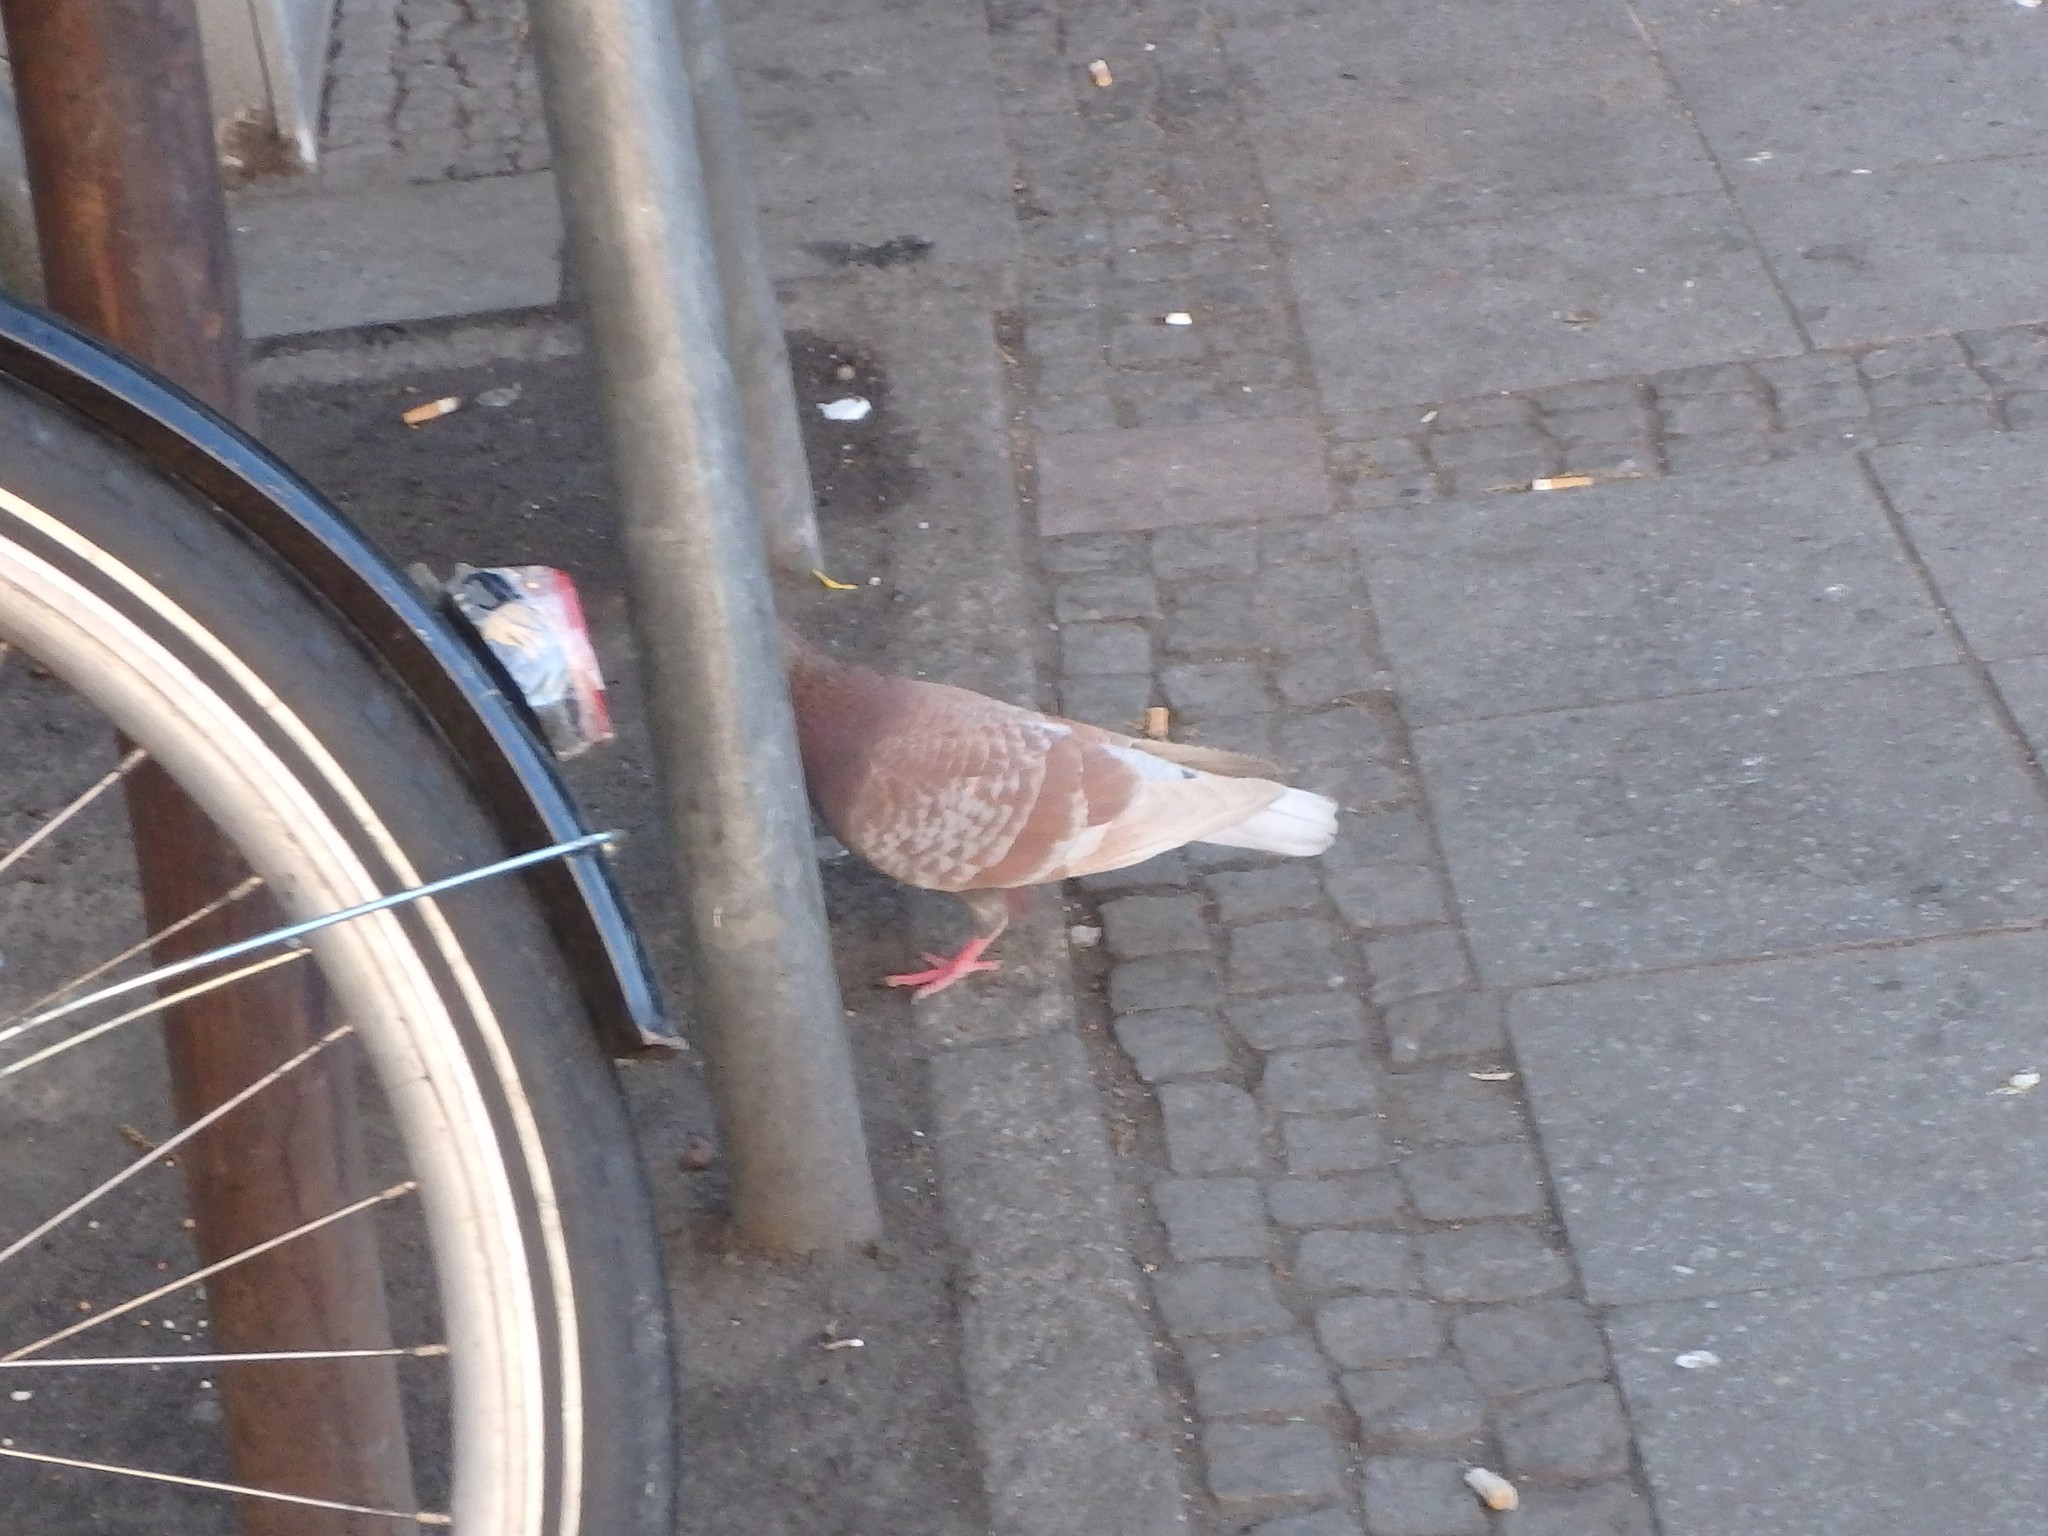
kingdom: Animalia
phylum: Chordata
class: Aves
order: Columbiformes
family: Columbidae
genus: Columba
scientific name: Columba livia
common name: Rock pigeon
